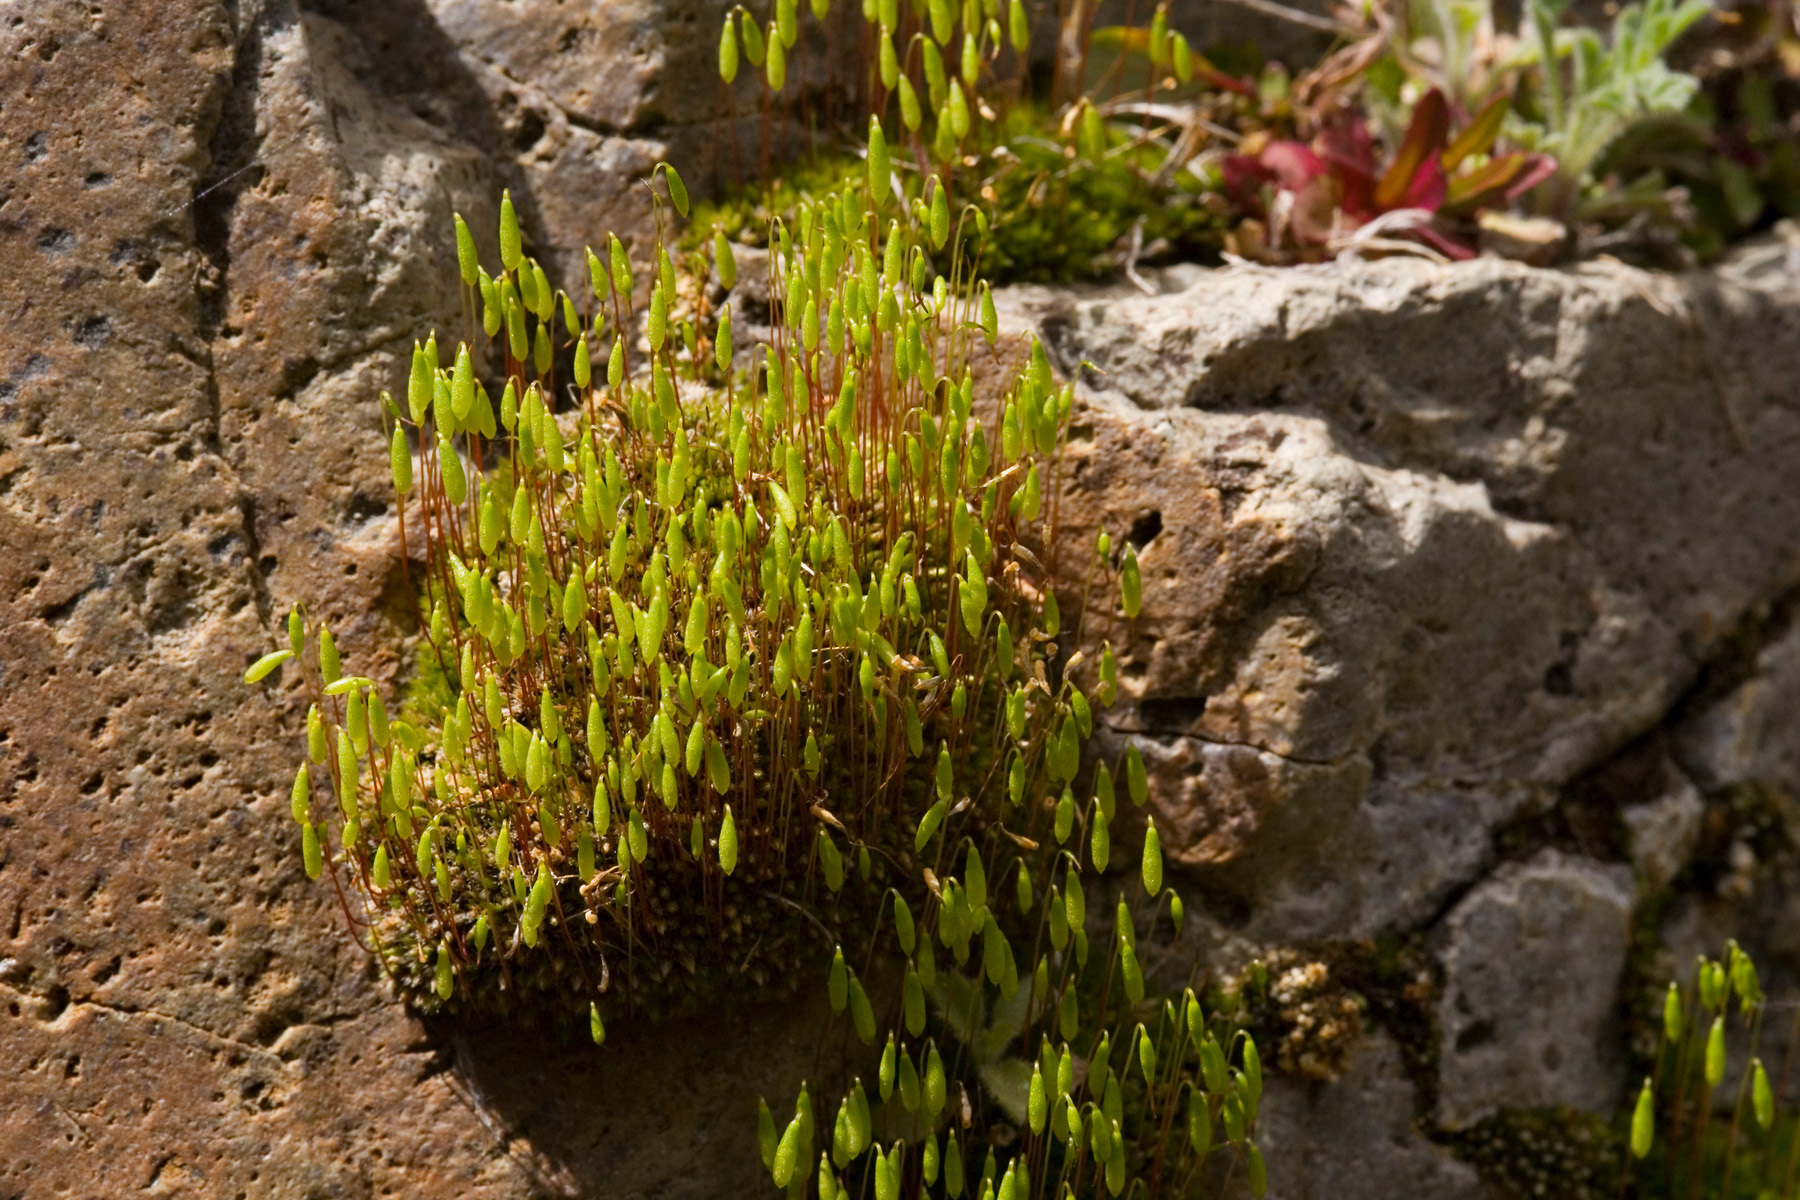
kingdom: Plantae
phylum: Bryophyta
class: Bryopsida
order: Bryales
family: Bryaceae
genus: Ptychostomum
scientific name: Ptychostomum pseudotriquetrum
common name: Long-leaved thread moss
